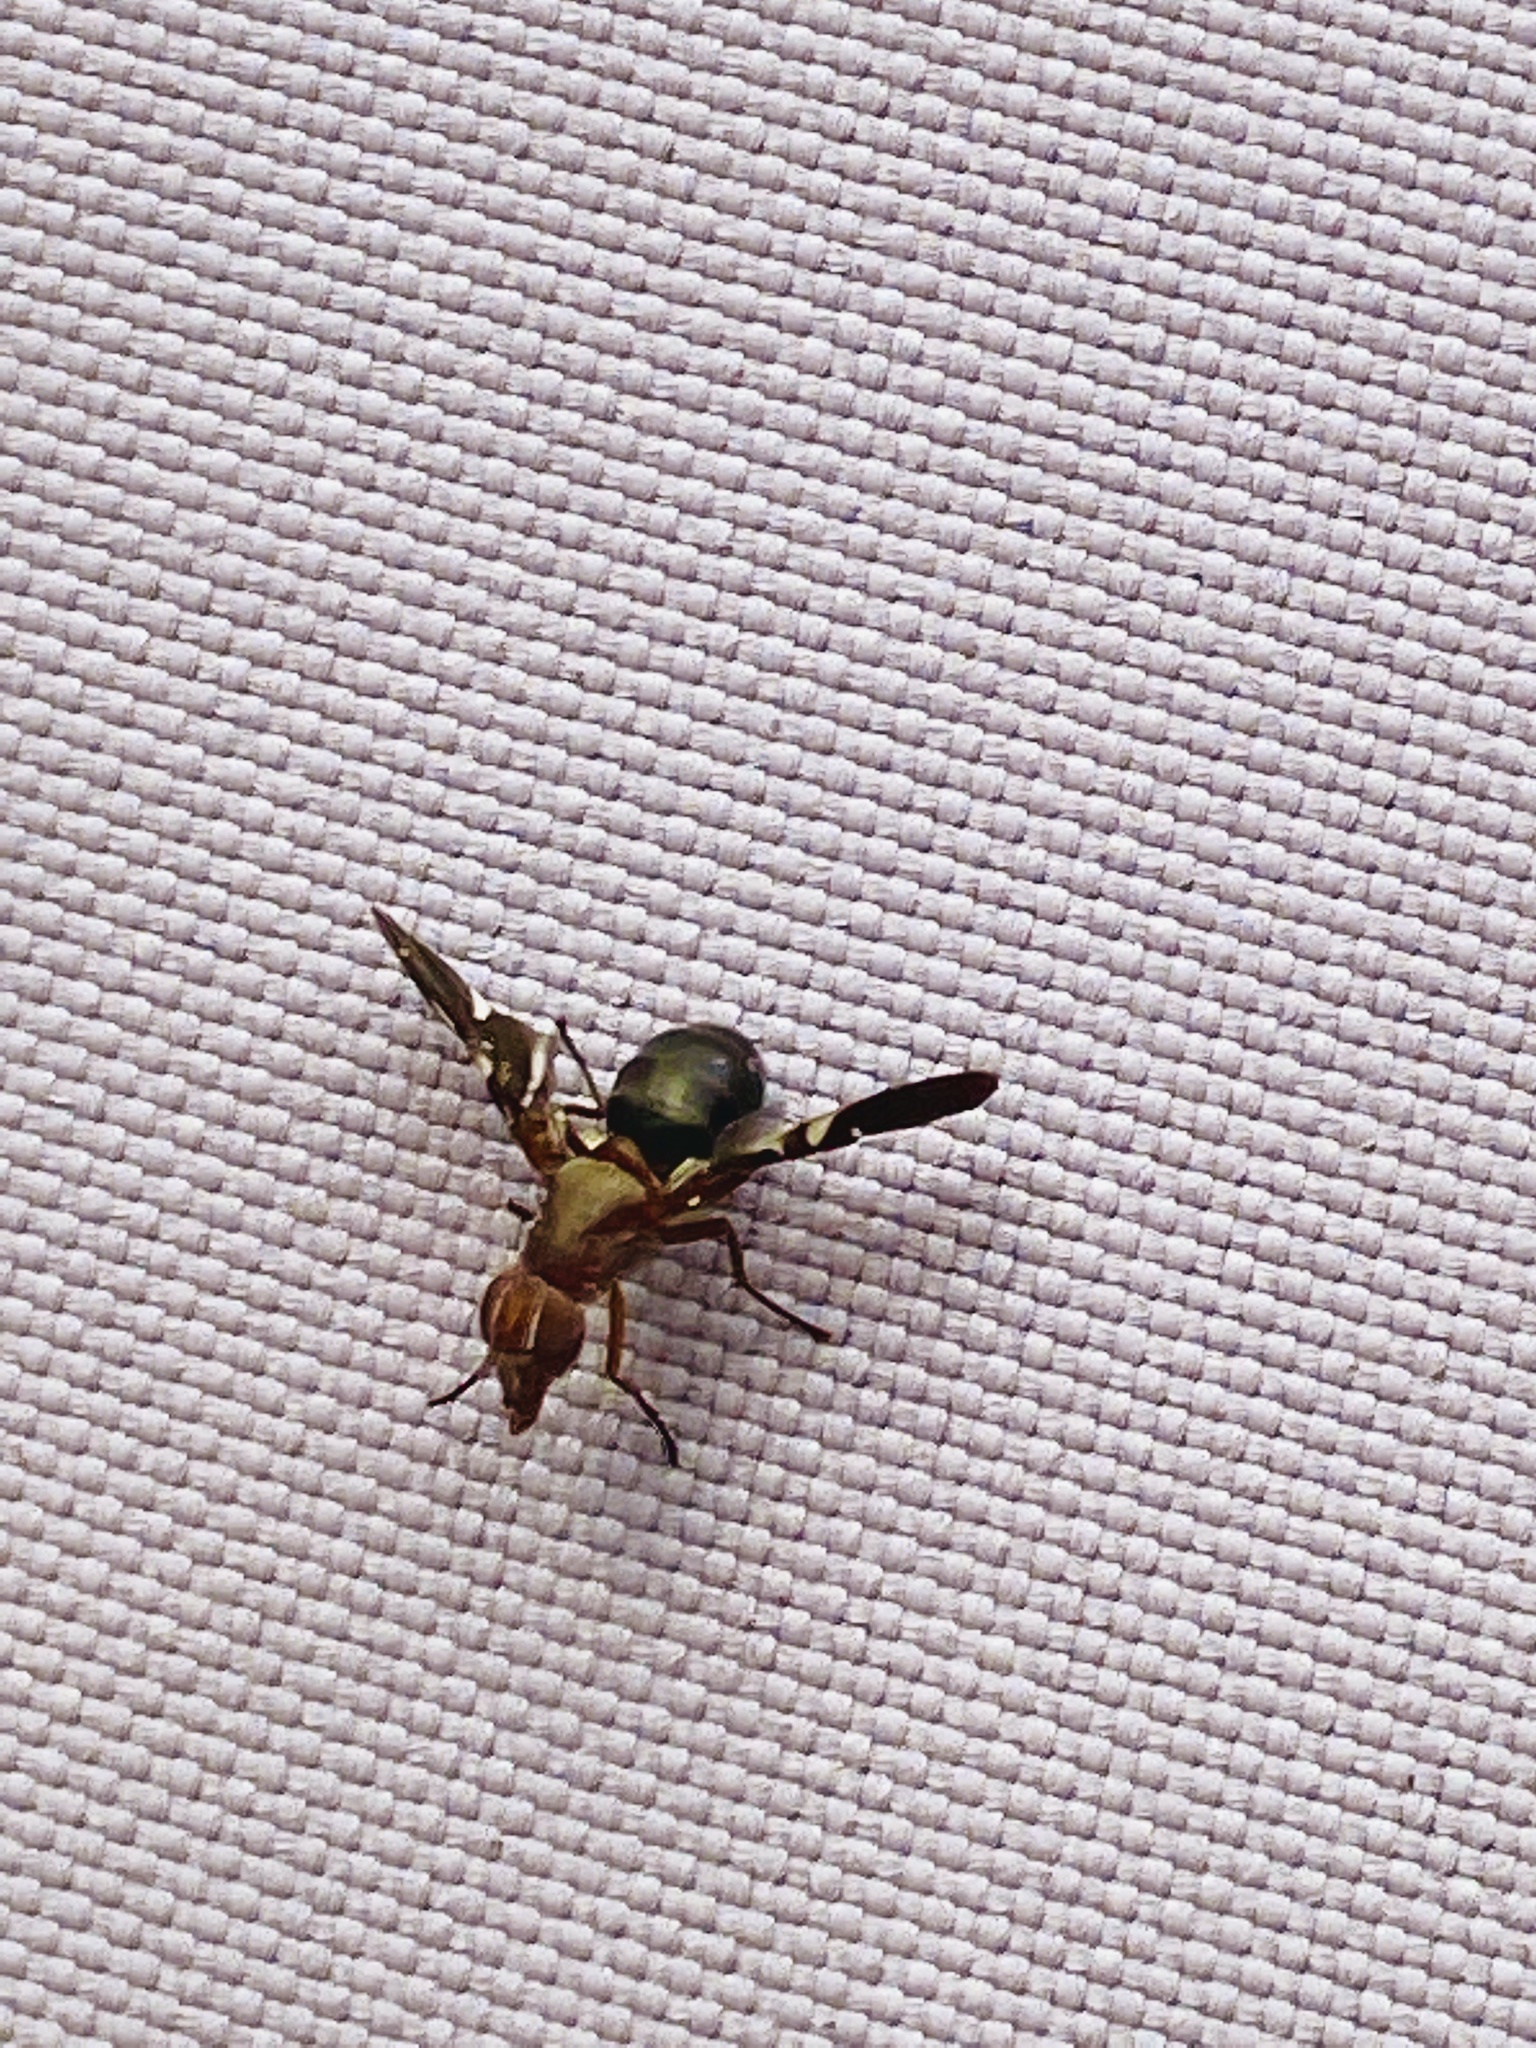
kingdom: Animalia
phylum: Arthropoda
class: Insecta
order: Diptera
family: Ulidiidae
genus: Delphinia
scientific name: Delphinia picta
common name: Common picture-winged fly
